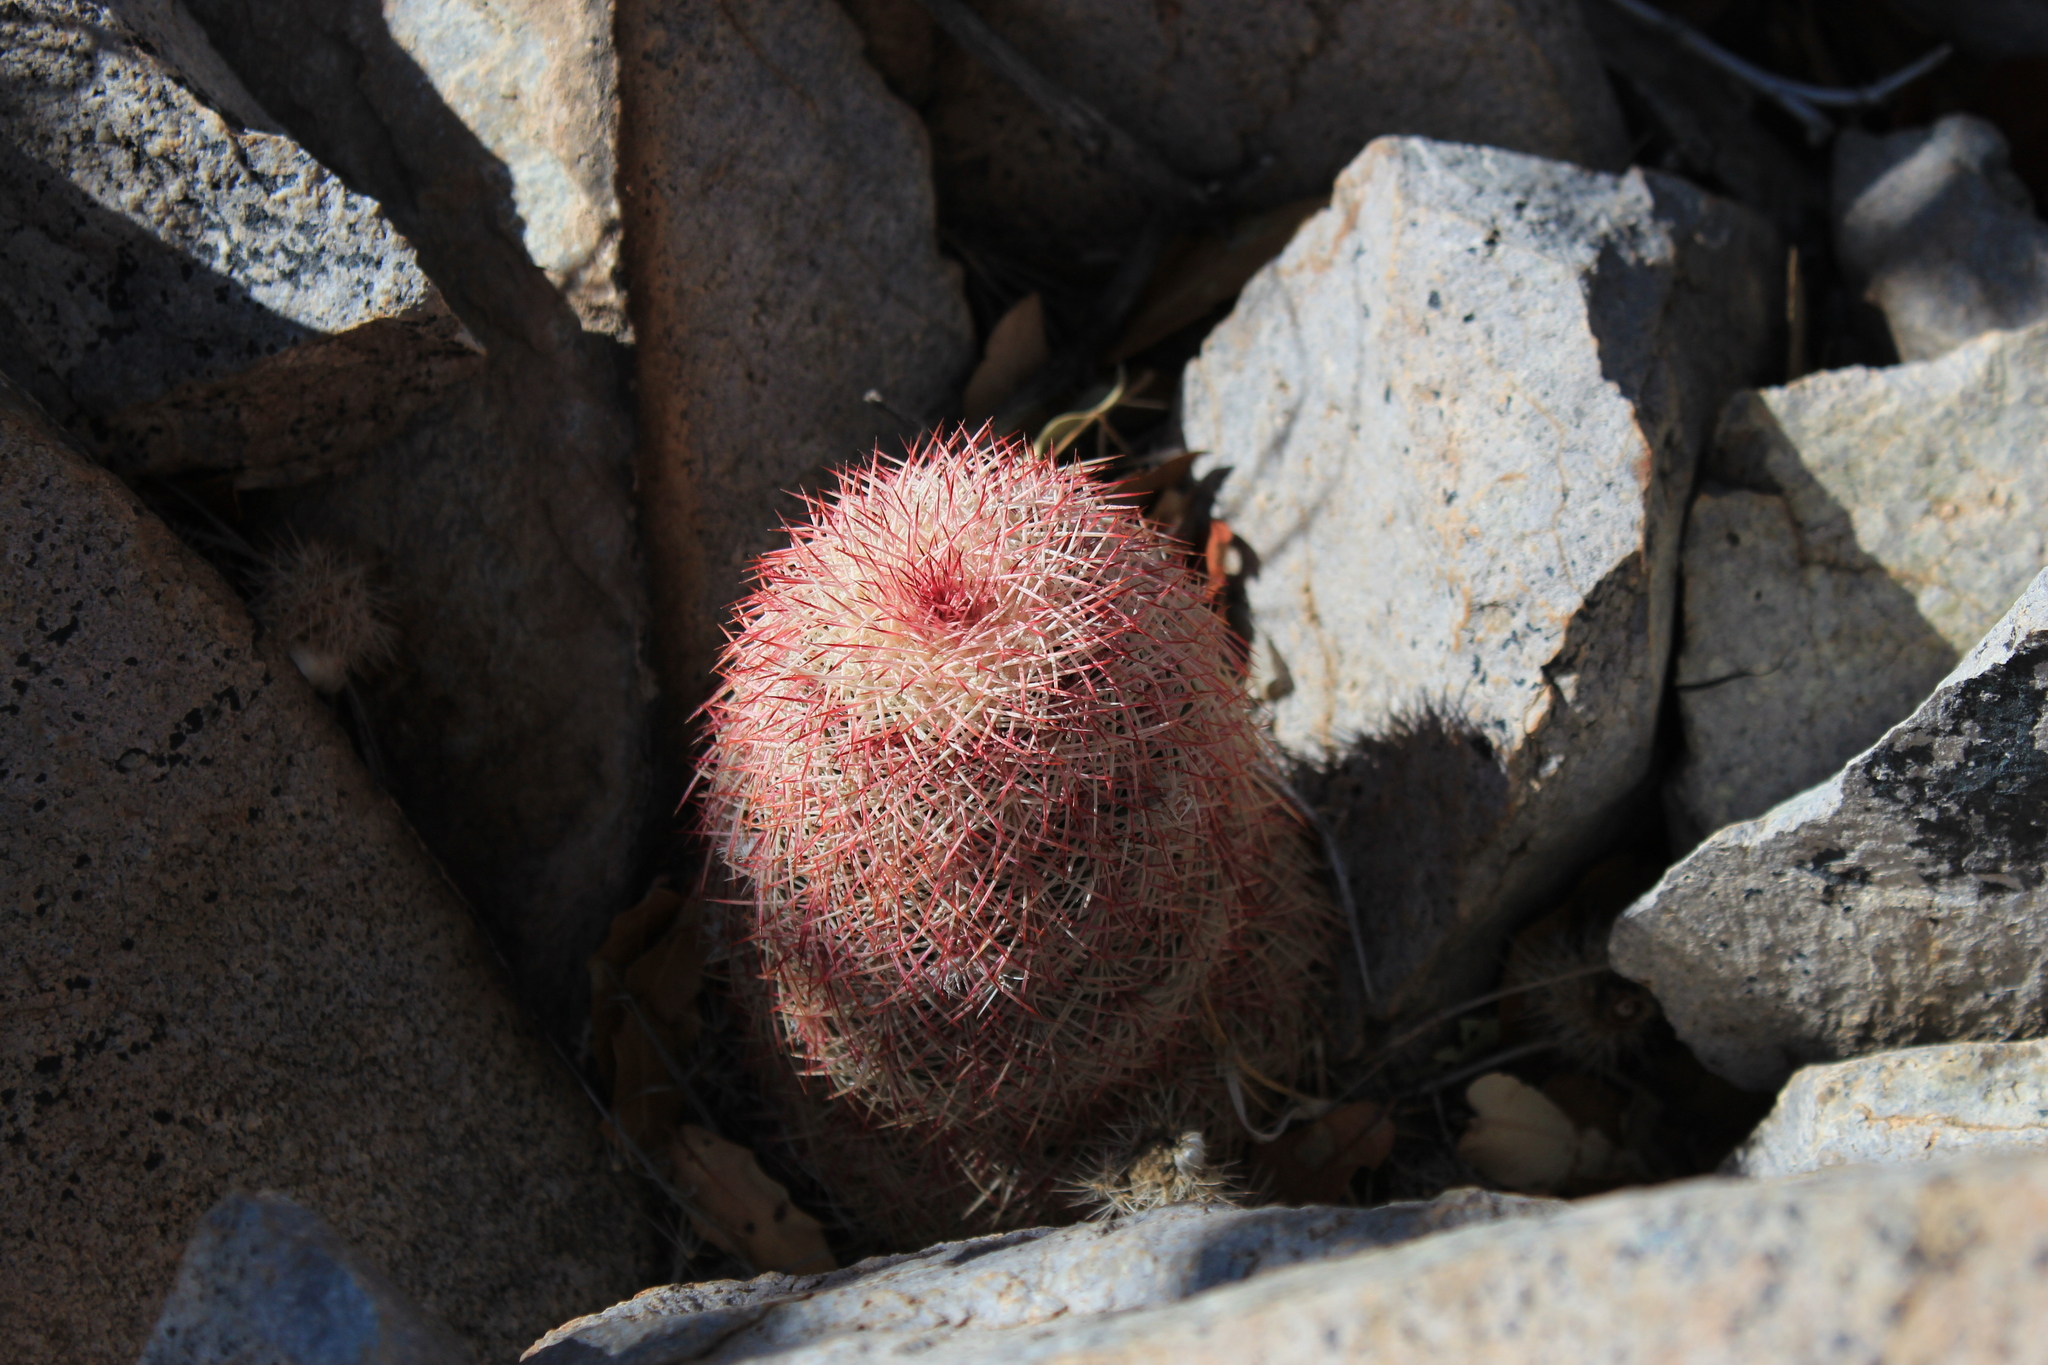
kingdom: Plantae
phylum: Tracheophyta
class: Magnoliopsida
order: Caryophyllales
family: Cactaceae
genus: Echinocereus
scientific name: Echinocereus rigidissimus
